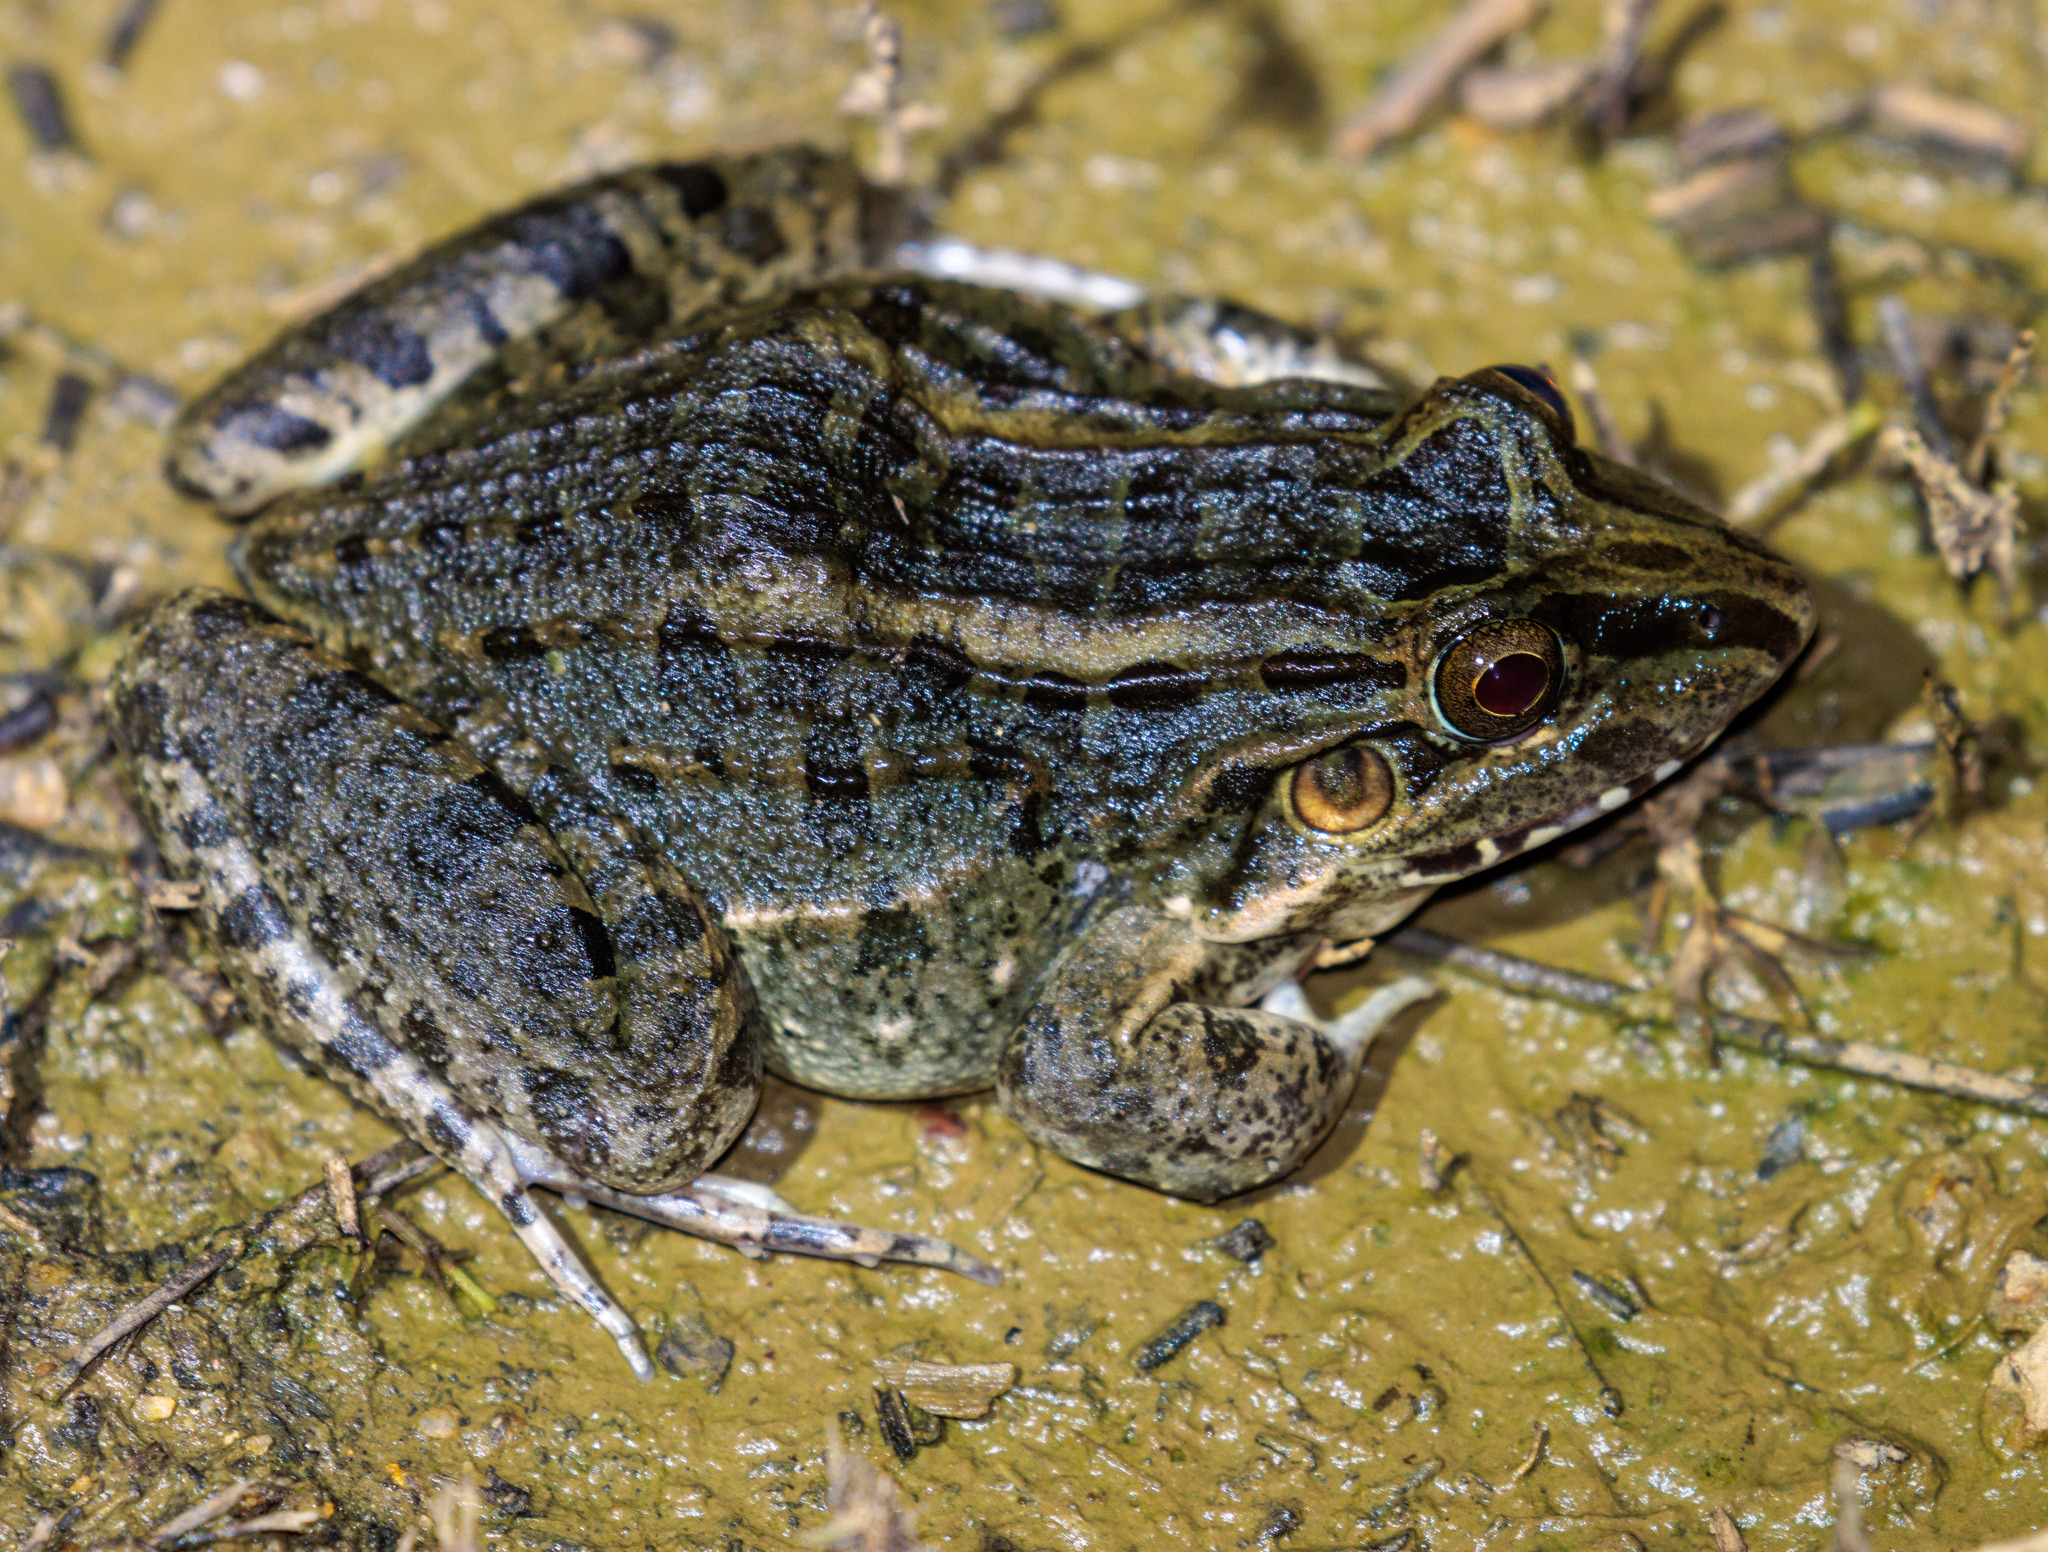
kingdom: Animalia
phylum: Chordata
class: Amphibia
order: Anura
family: Leptodactylidae
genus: Leptodactylus
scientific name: Leptodactylus macrosternum
